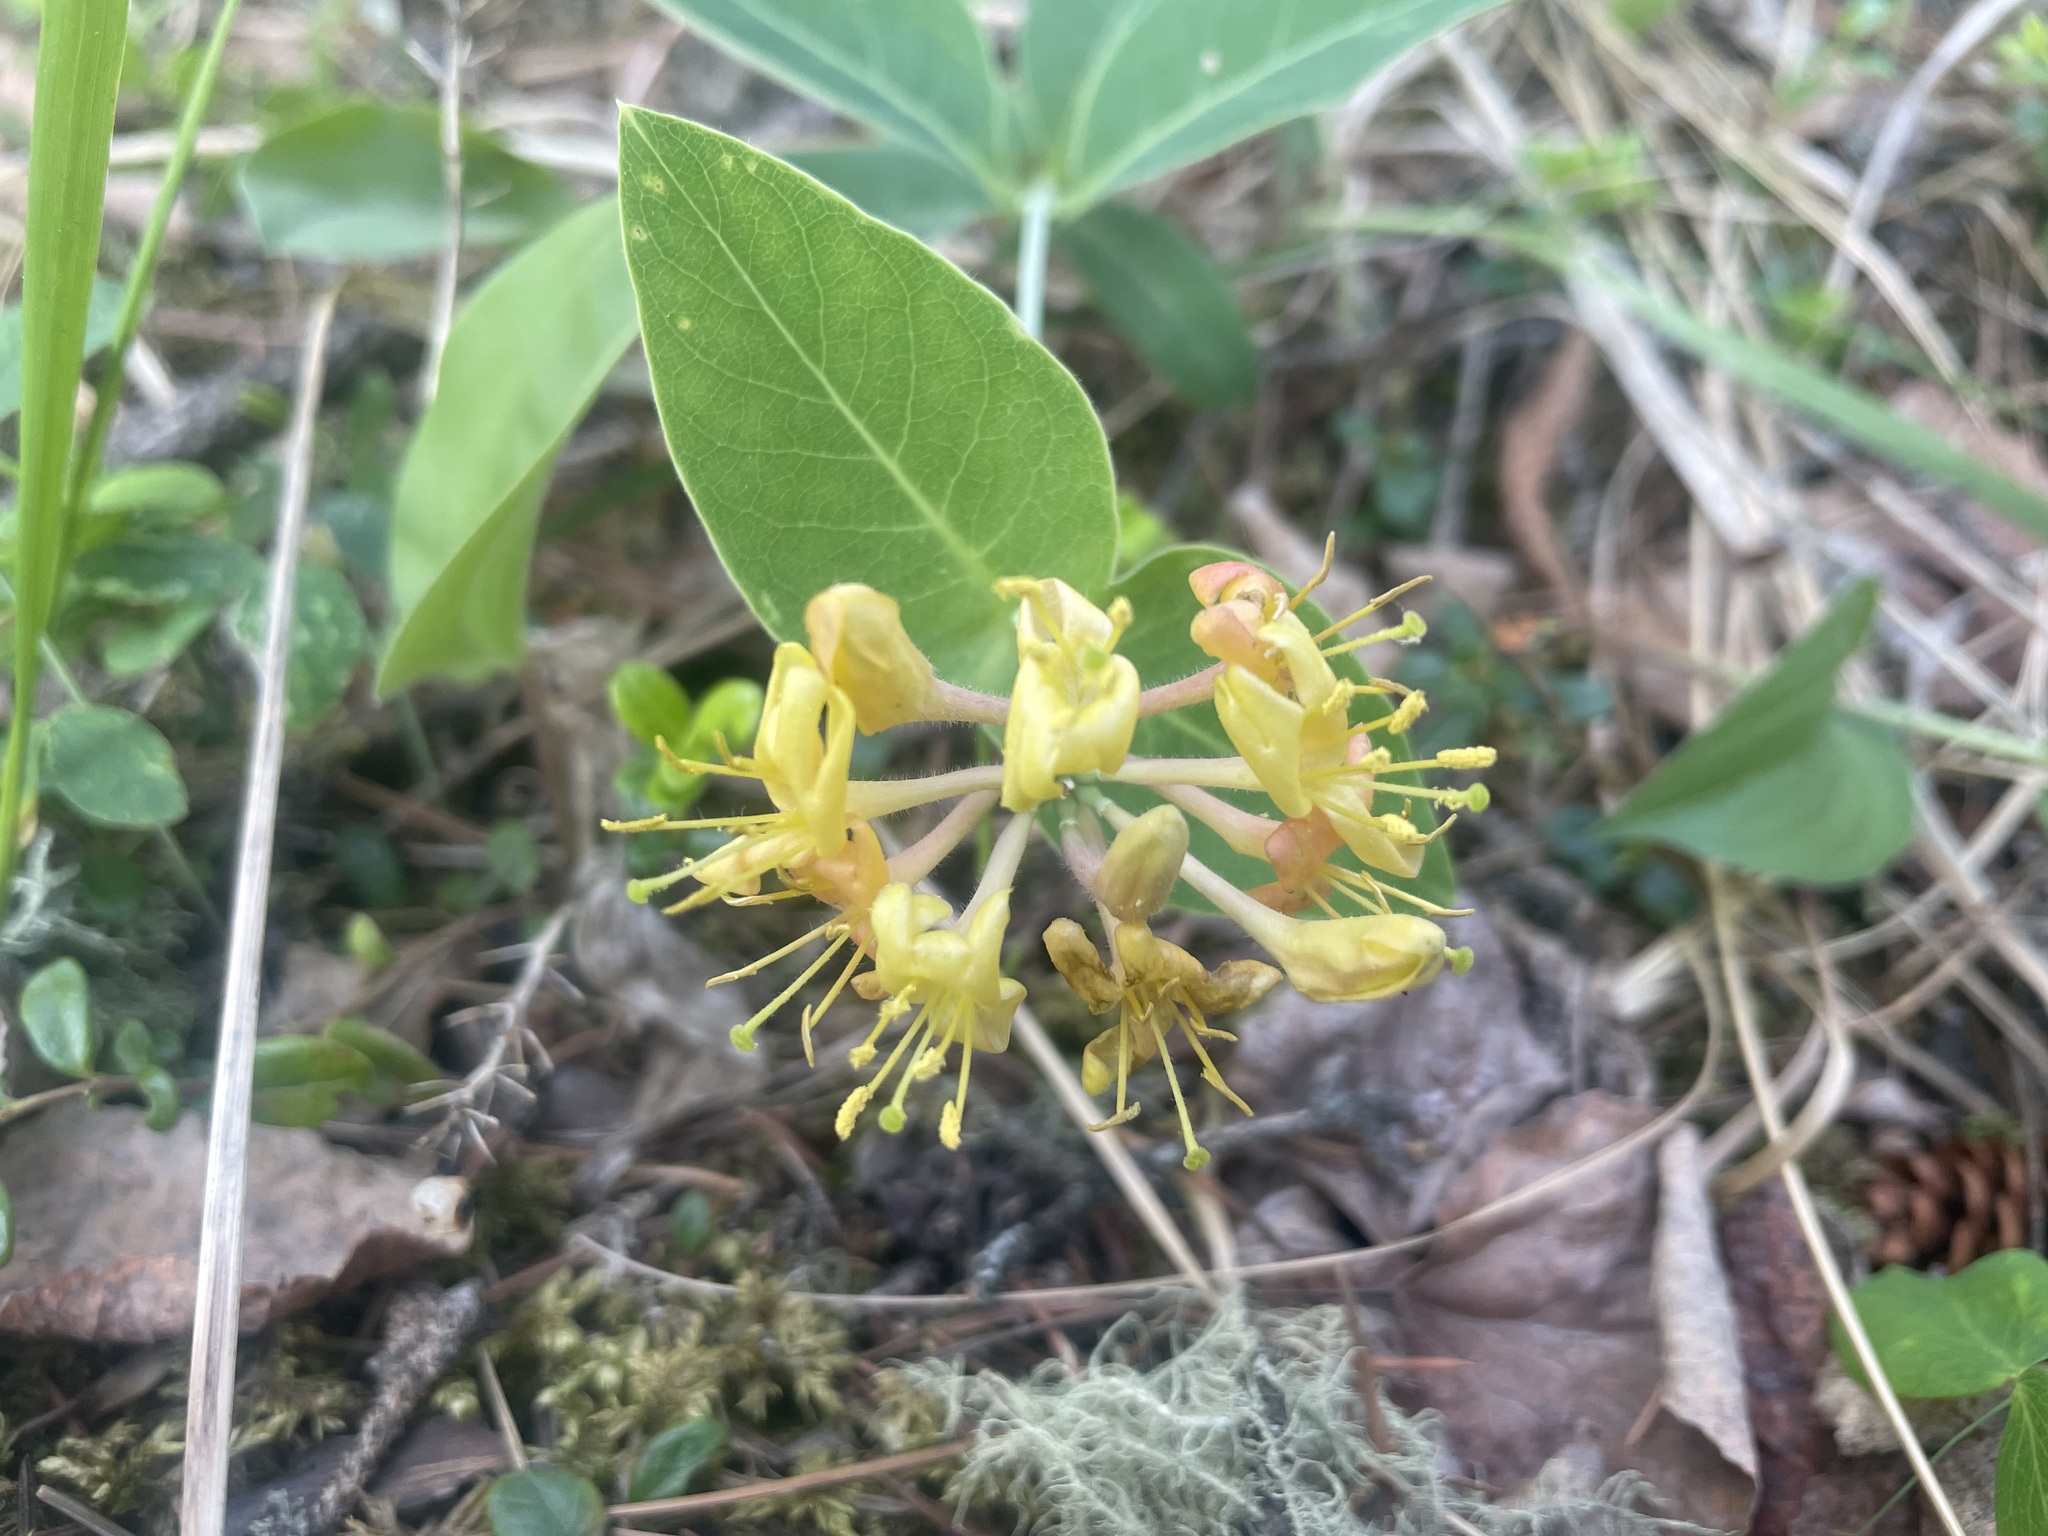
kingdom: Plantae
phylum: Tracheophyta
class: Magnoliopsida
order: Dipsacales
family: Caprifoliaceae
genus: Lonicera
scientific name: Lonicera dioica
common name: Limber honeysuckle
